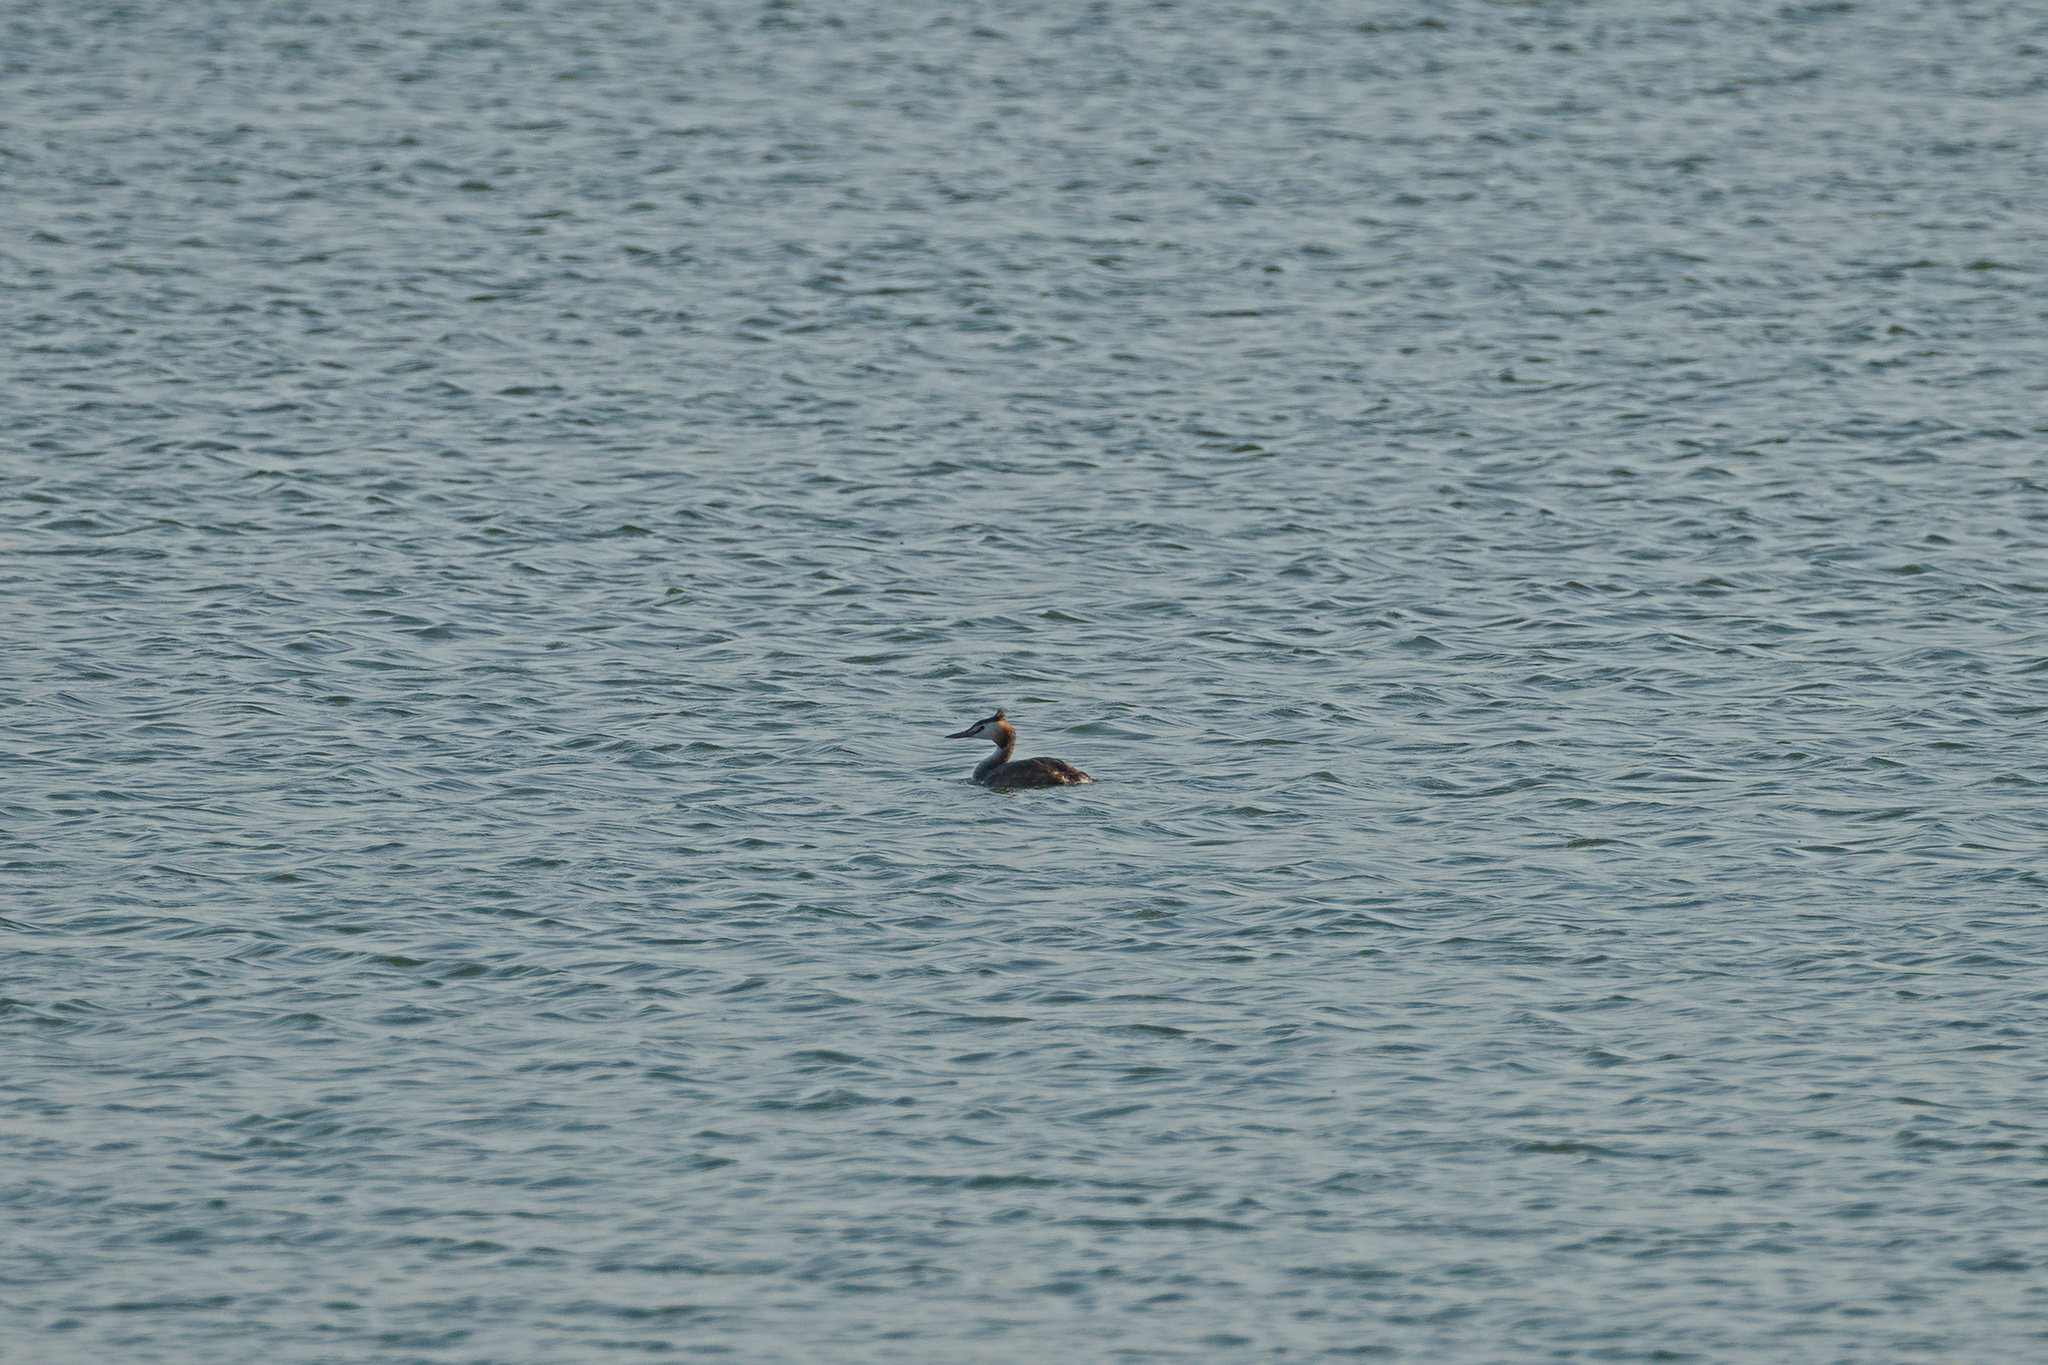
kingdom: Animalia
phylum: Chordata
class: Aves
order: Podicipediformes
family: Podicipedidae
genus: Podiceps
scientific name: Podiceps cristatus
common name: Great crested grebe
